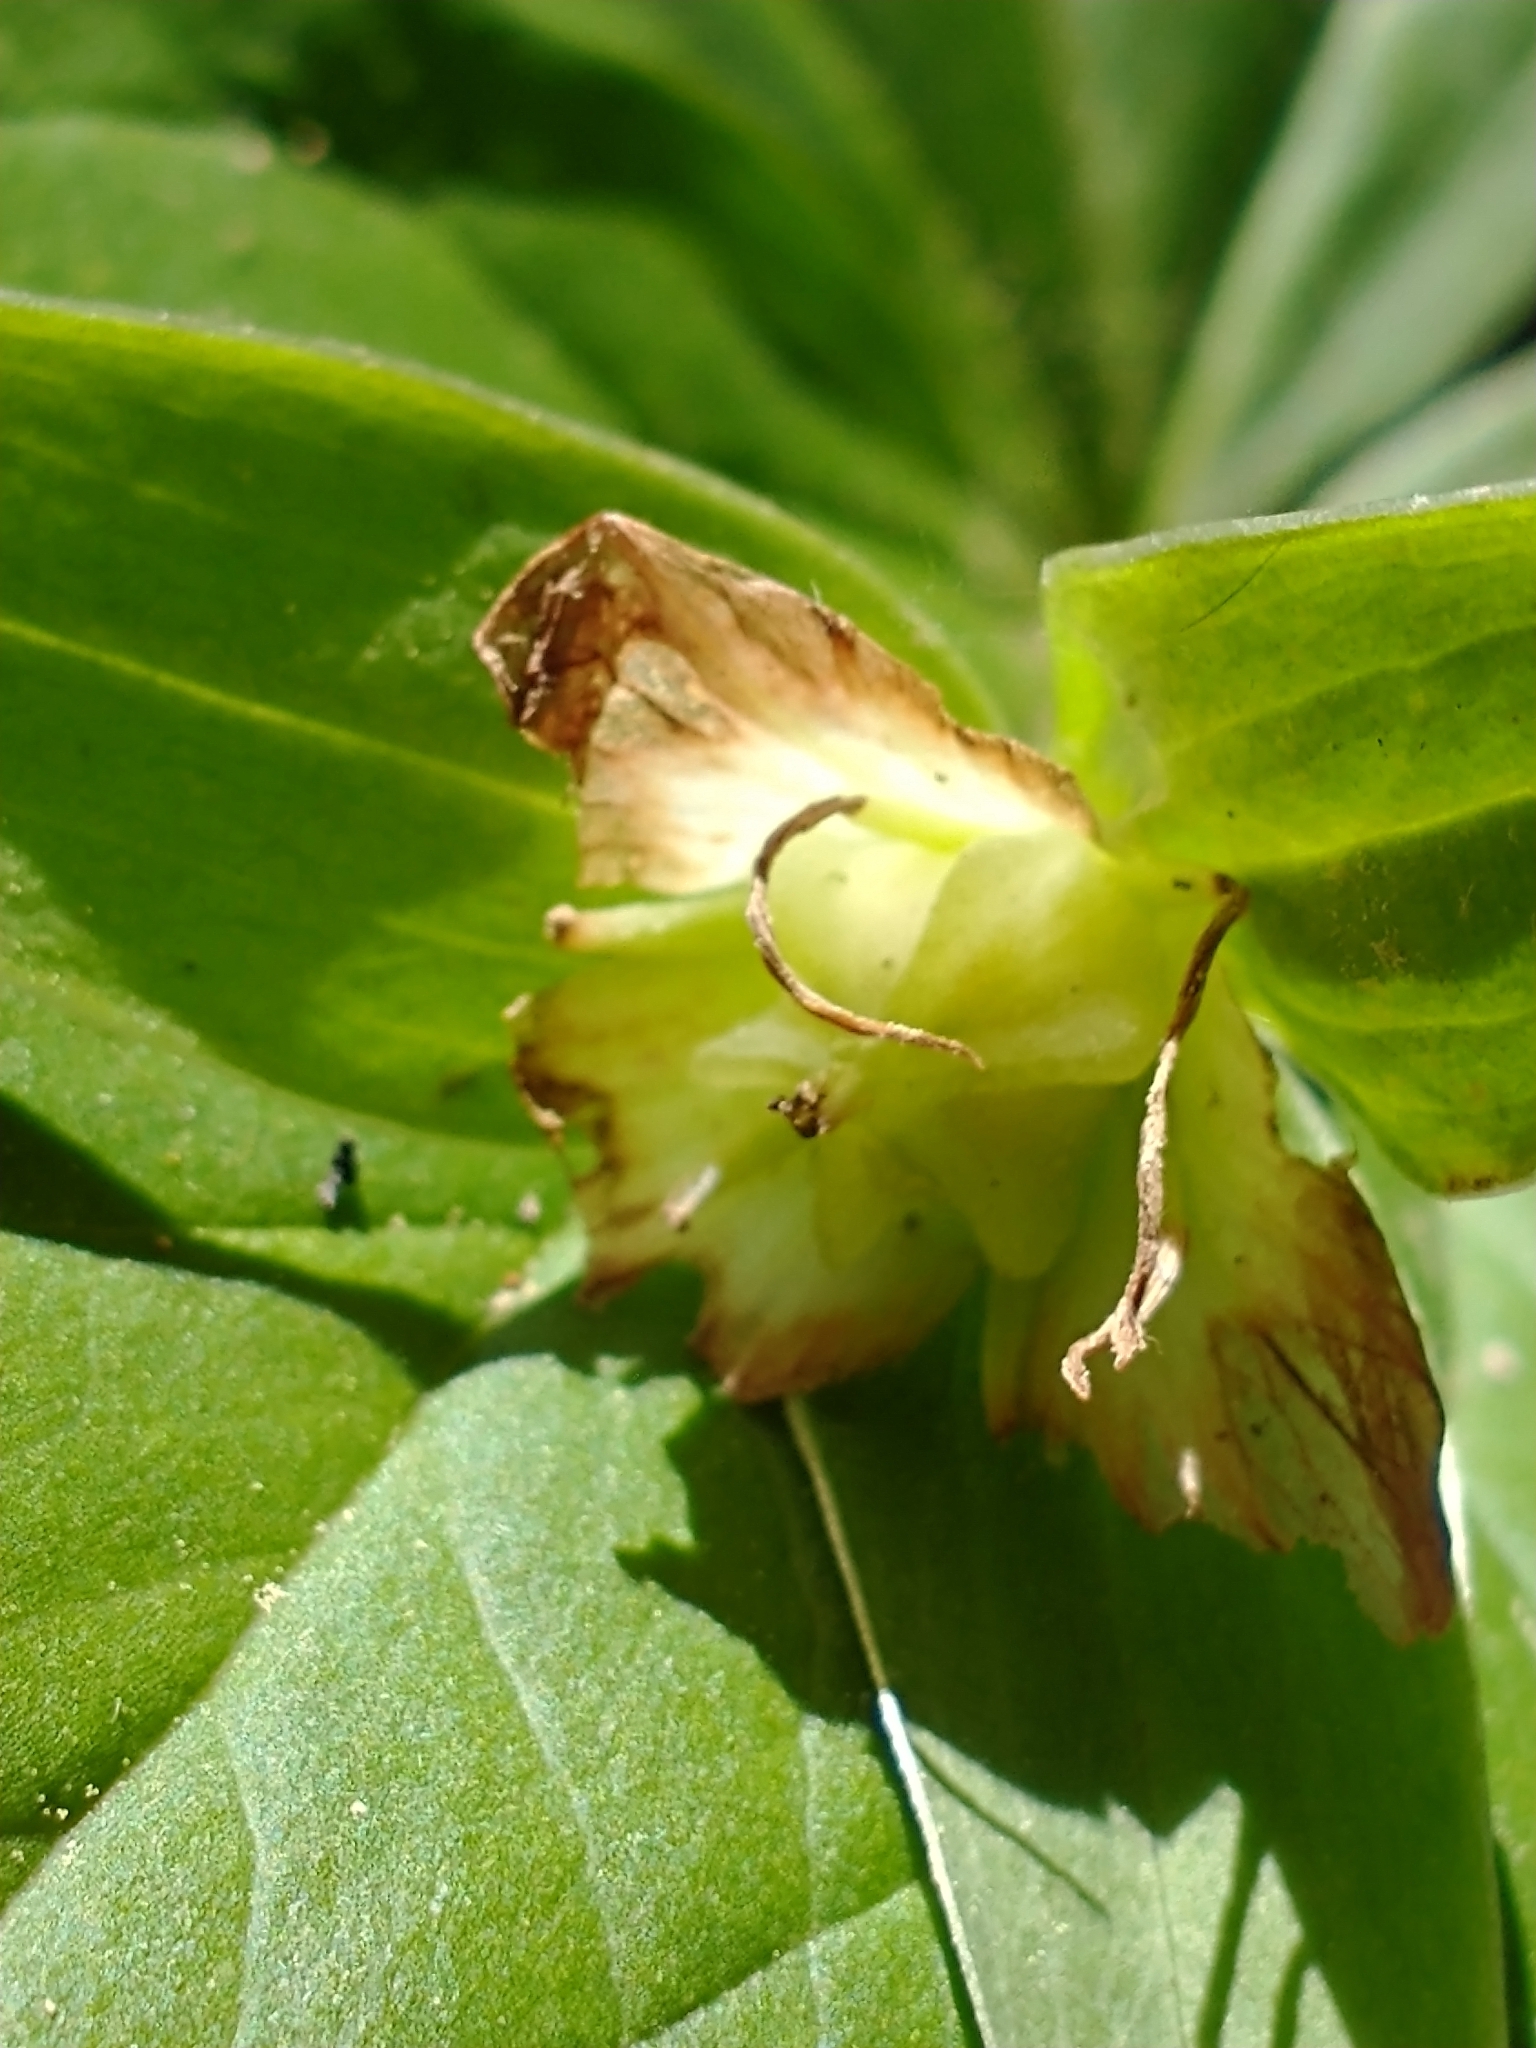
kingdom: Plantae
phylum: Tracheophyta
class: Liliopsida
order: Liliales
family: Melanthiaceae
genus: Trillium
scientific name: Trillium grandiflorum
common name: Great white trillium
